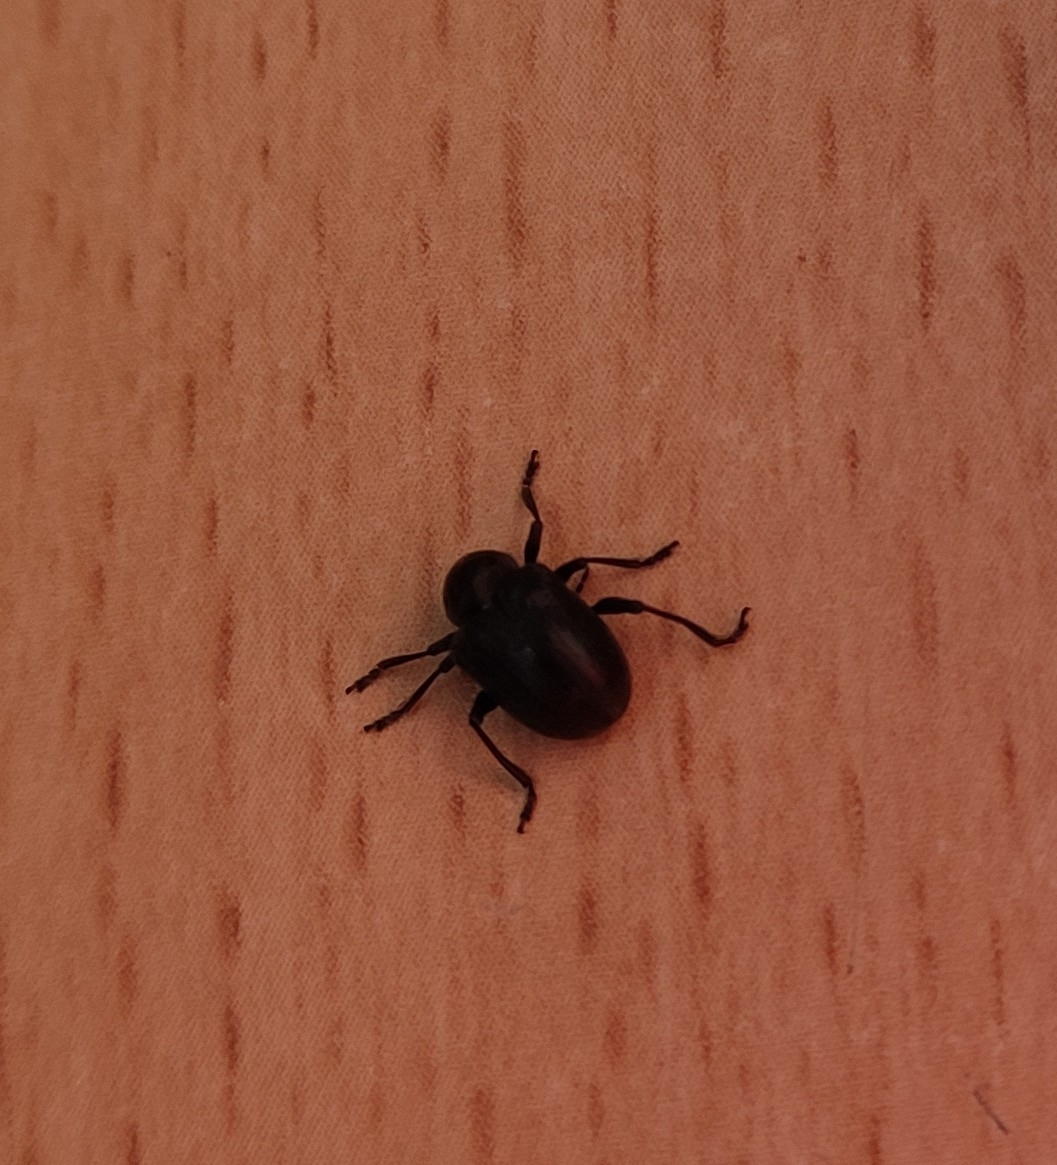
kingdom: Animalia
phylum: Arthropoda
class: Insecta
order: Coleoptera
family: Chrysomelidae
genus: Bromius
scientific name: Bromius obscurus
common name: Western grape rootworm
